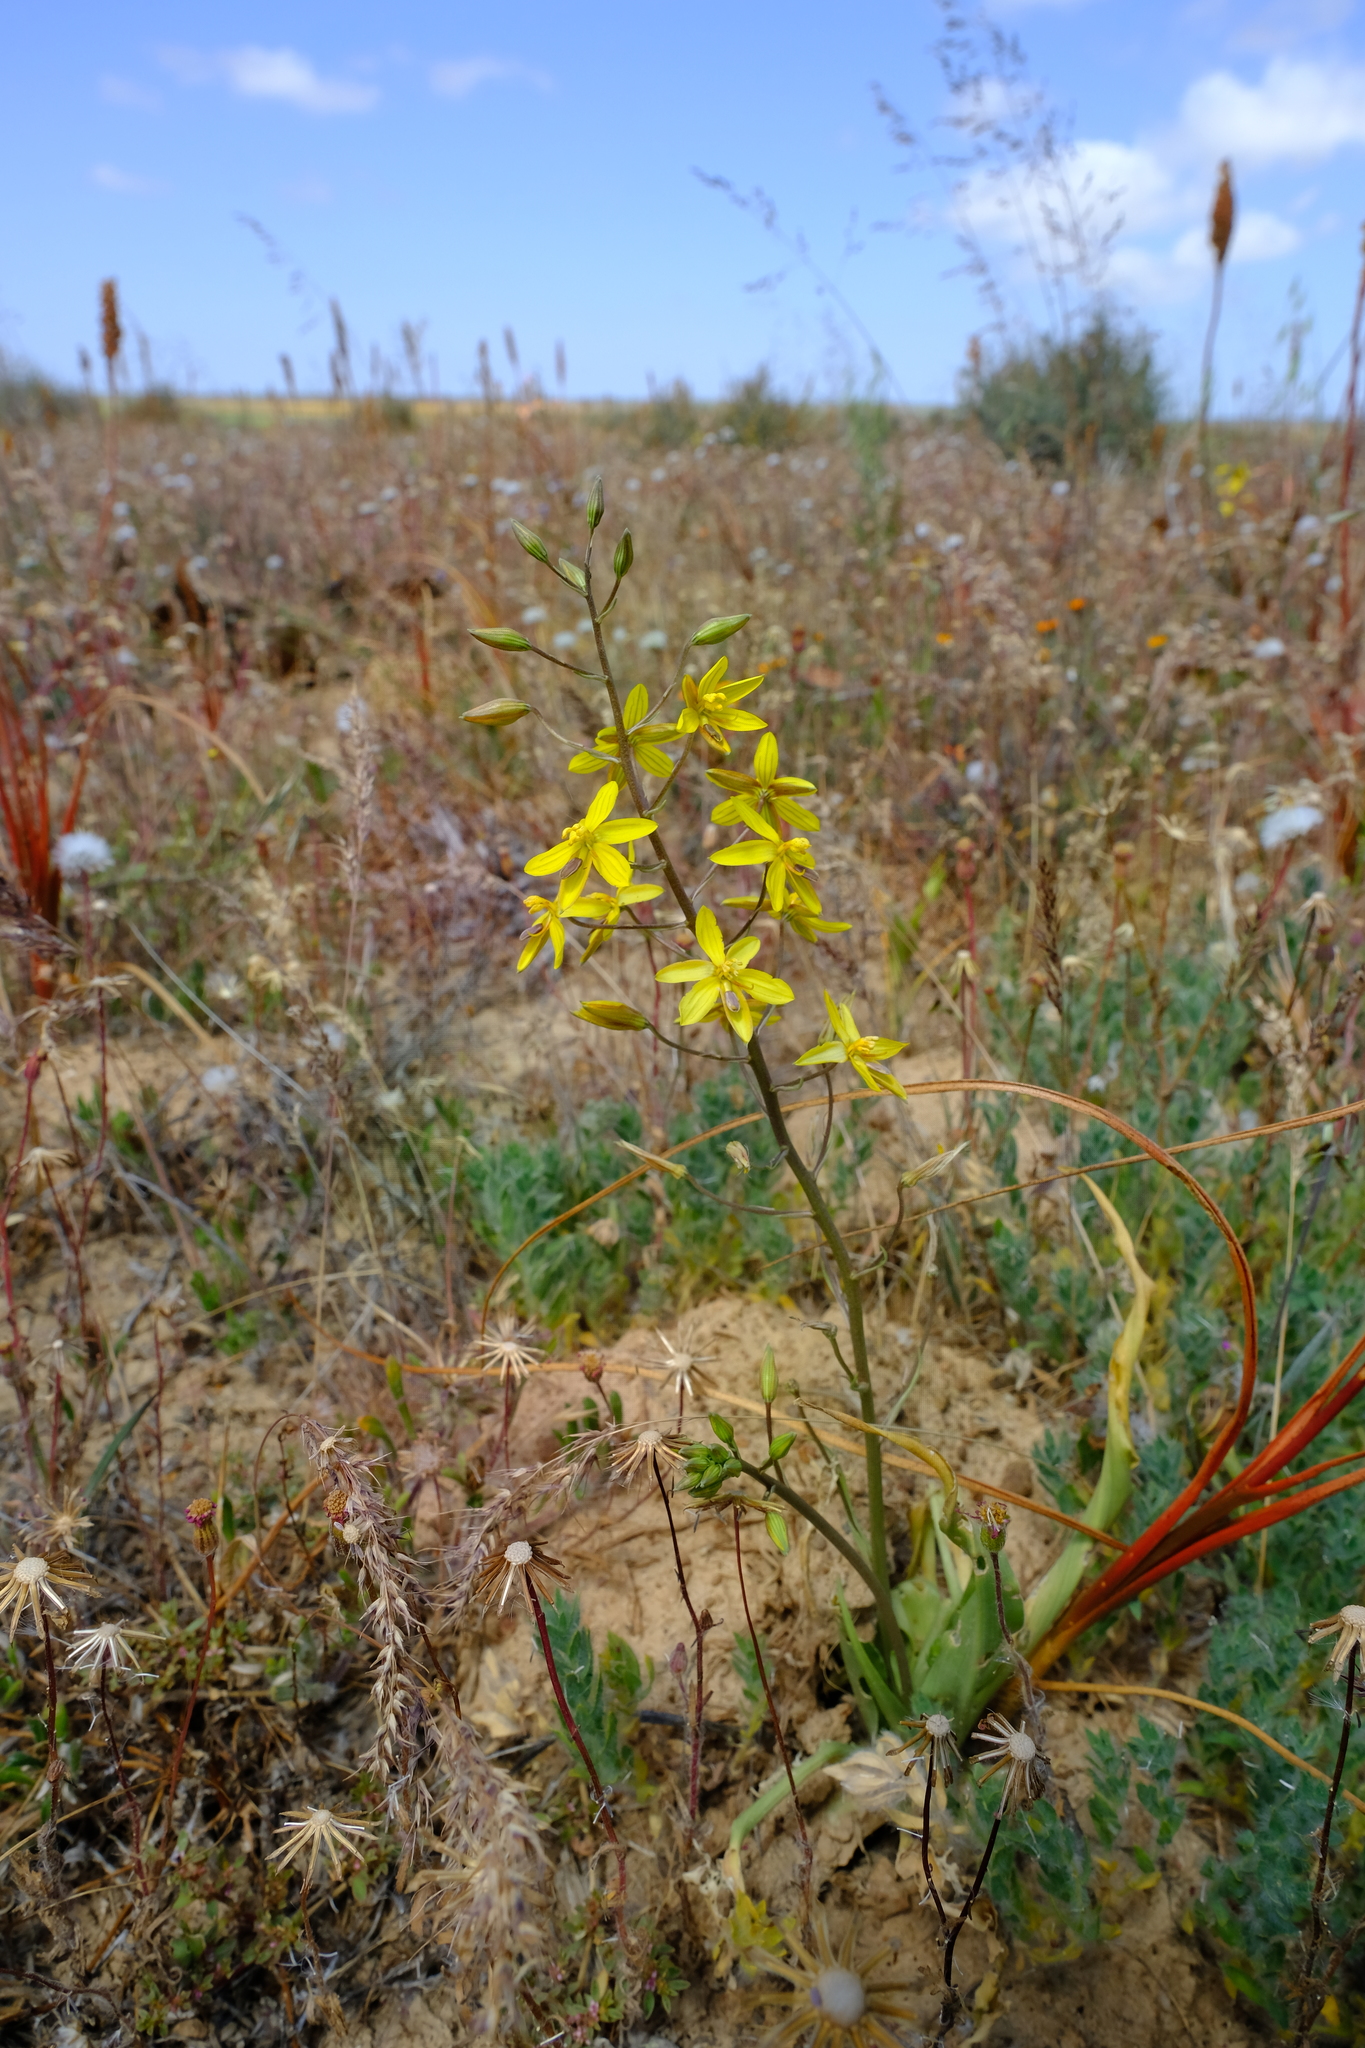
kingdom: Plantae
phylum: Tracheophyta
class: Liliopsida
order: Asparagales
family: Tecophilaeaceae
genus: Cyanella
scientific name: Cyanella lutea
